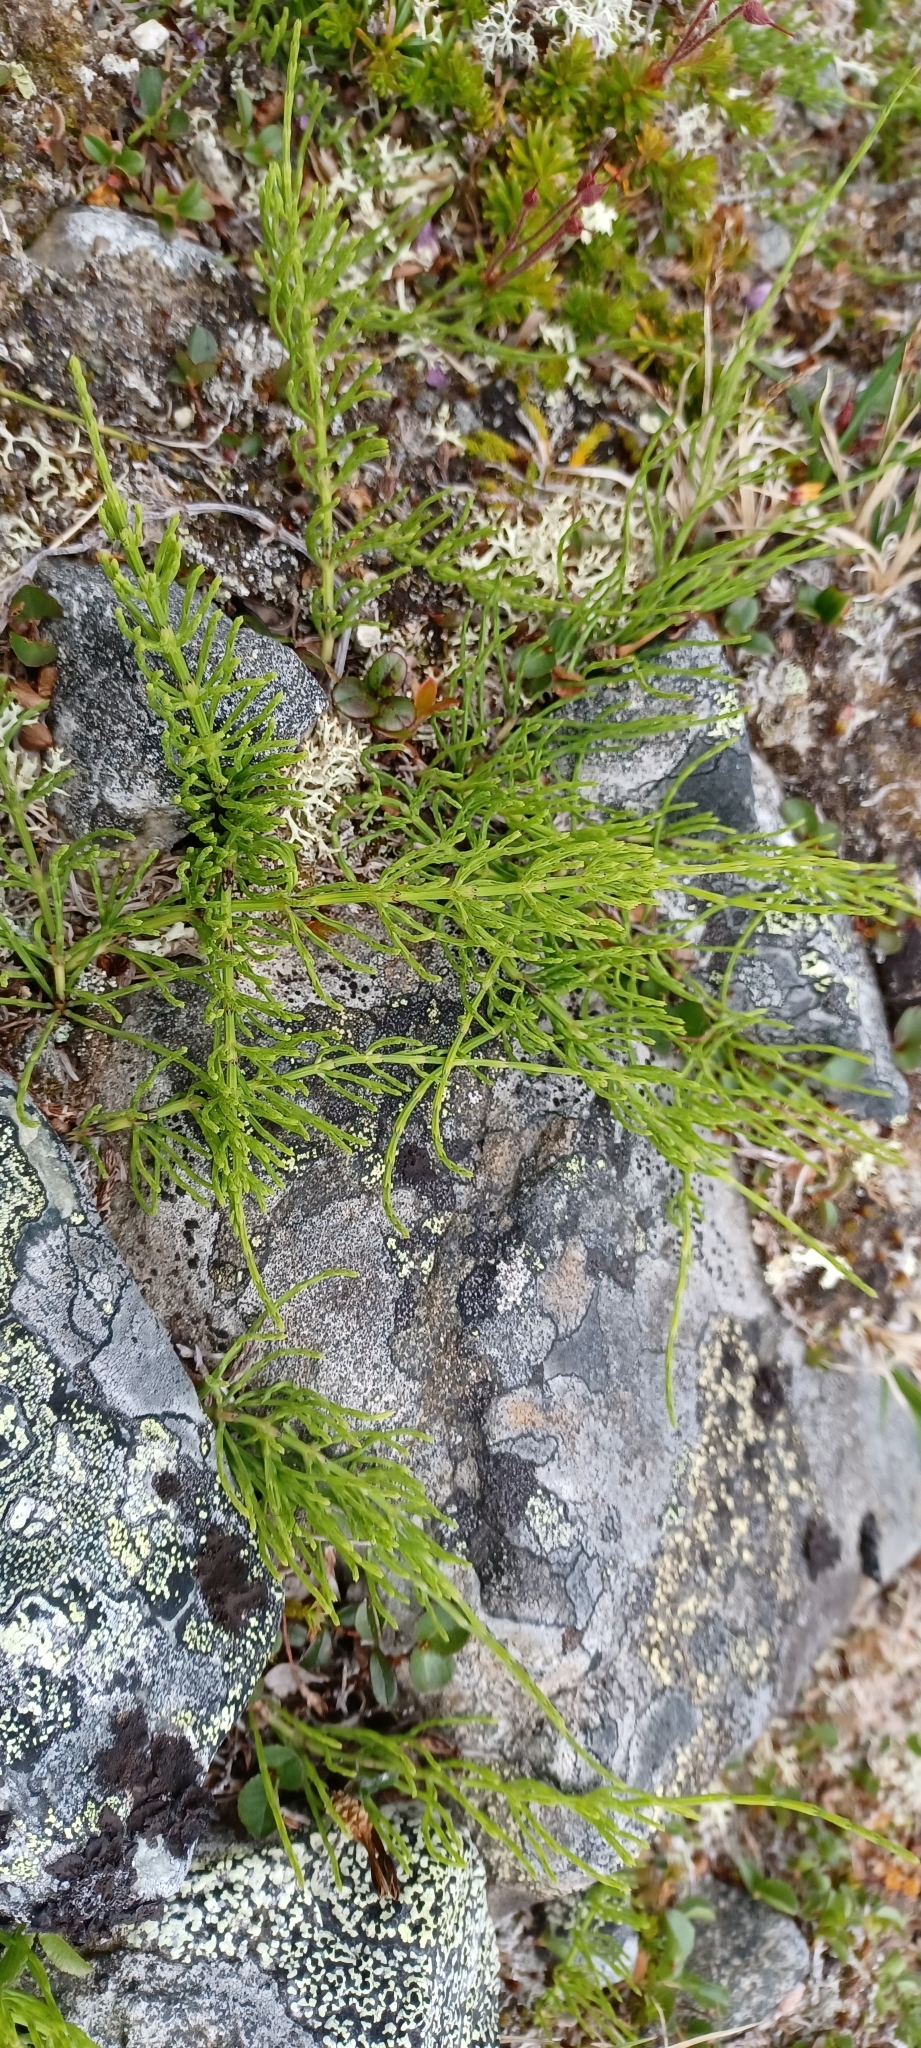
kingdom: Plantae
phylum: Tracheophyta
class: Polypodiopsida
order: Equisetales
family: Equisetaceae
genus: Equisetum
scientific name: Equisetum arvense
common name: Field horsetail
